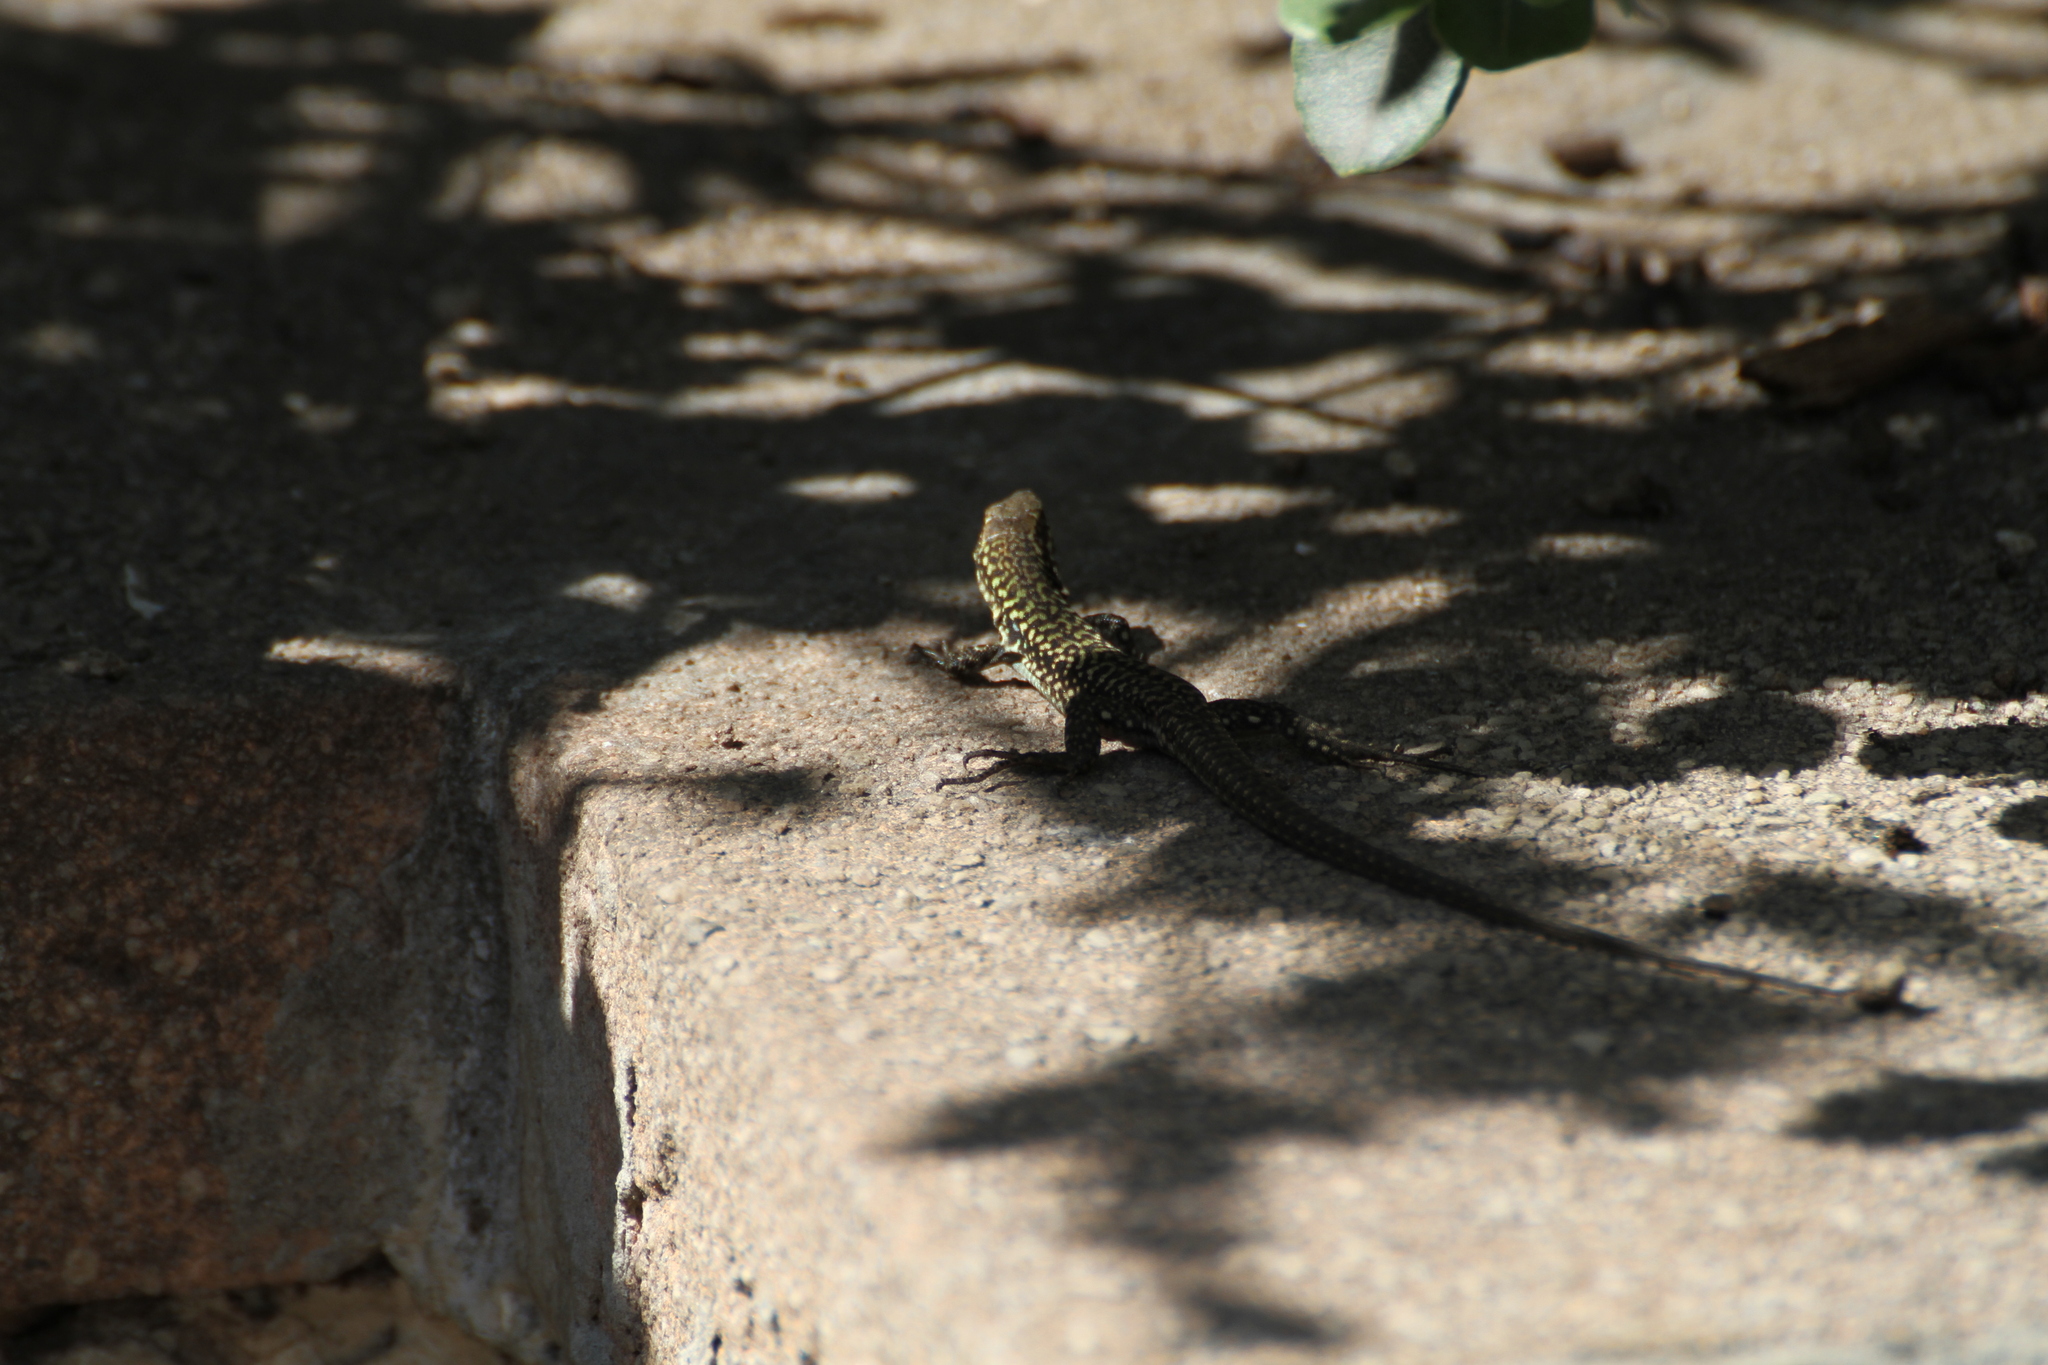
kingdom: Animalia
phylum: Chordata
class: Squamata
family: Lacertidae
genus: Podarcis
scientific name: Podarcis siculus
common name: Italian wall lizard
